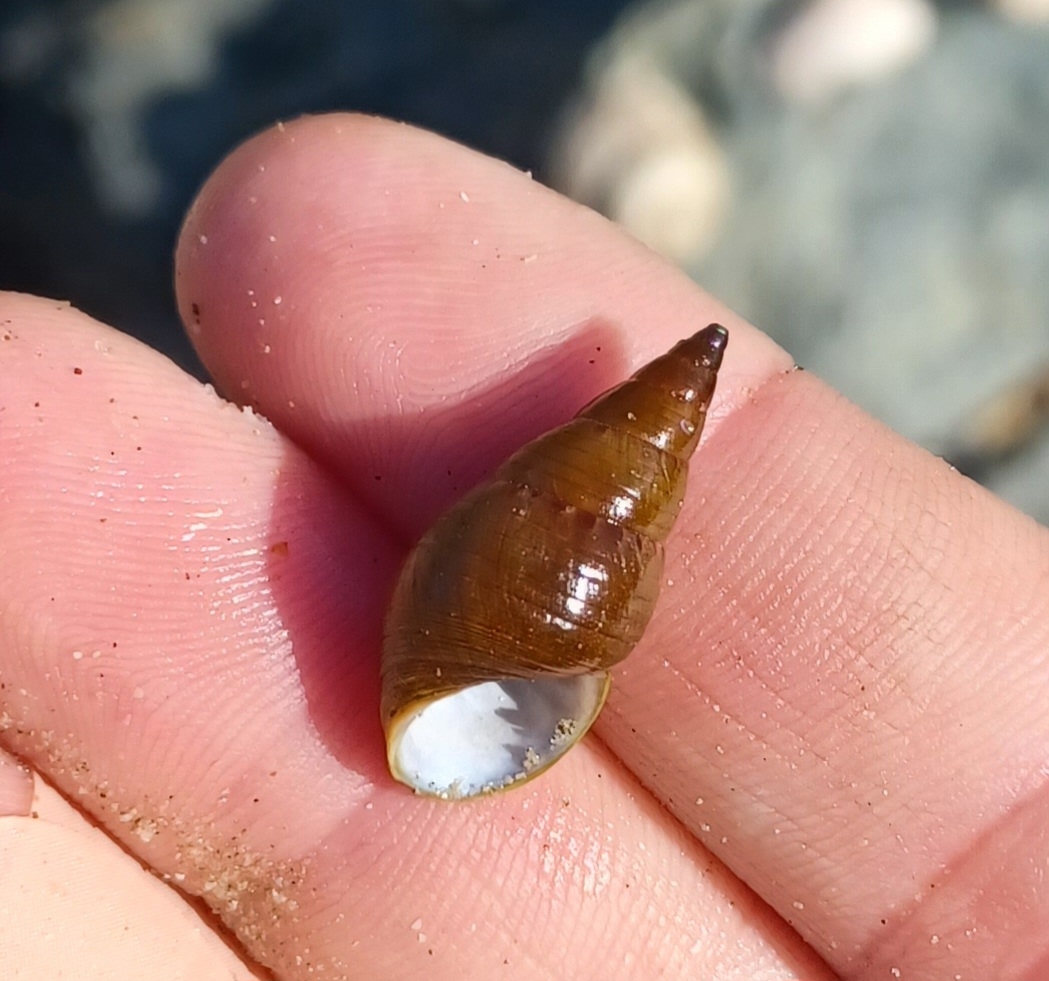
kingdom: Animalia
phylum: Mollusca
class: Gastropoda
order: Trochida
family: Trochidae
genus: Phasianotrochus
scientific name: Phasianotrochus eximius
